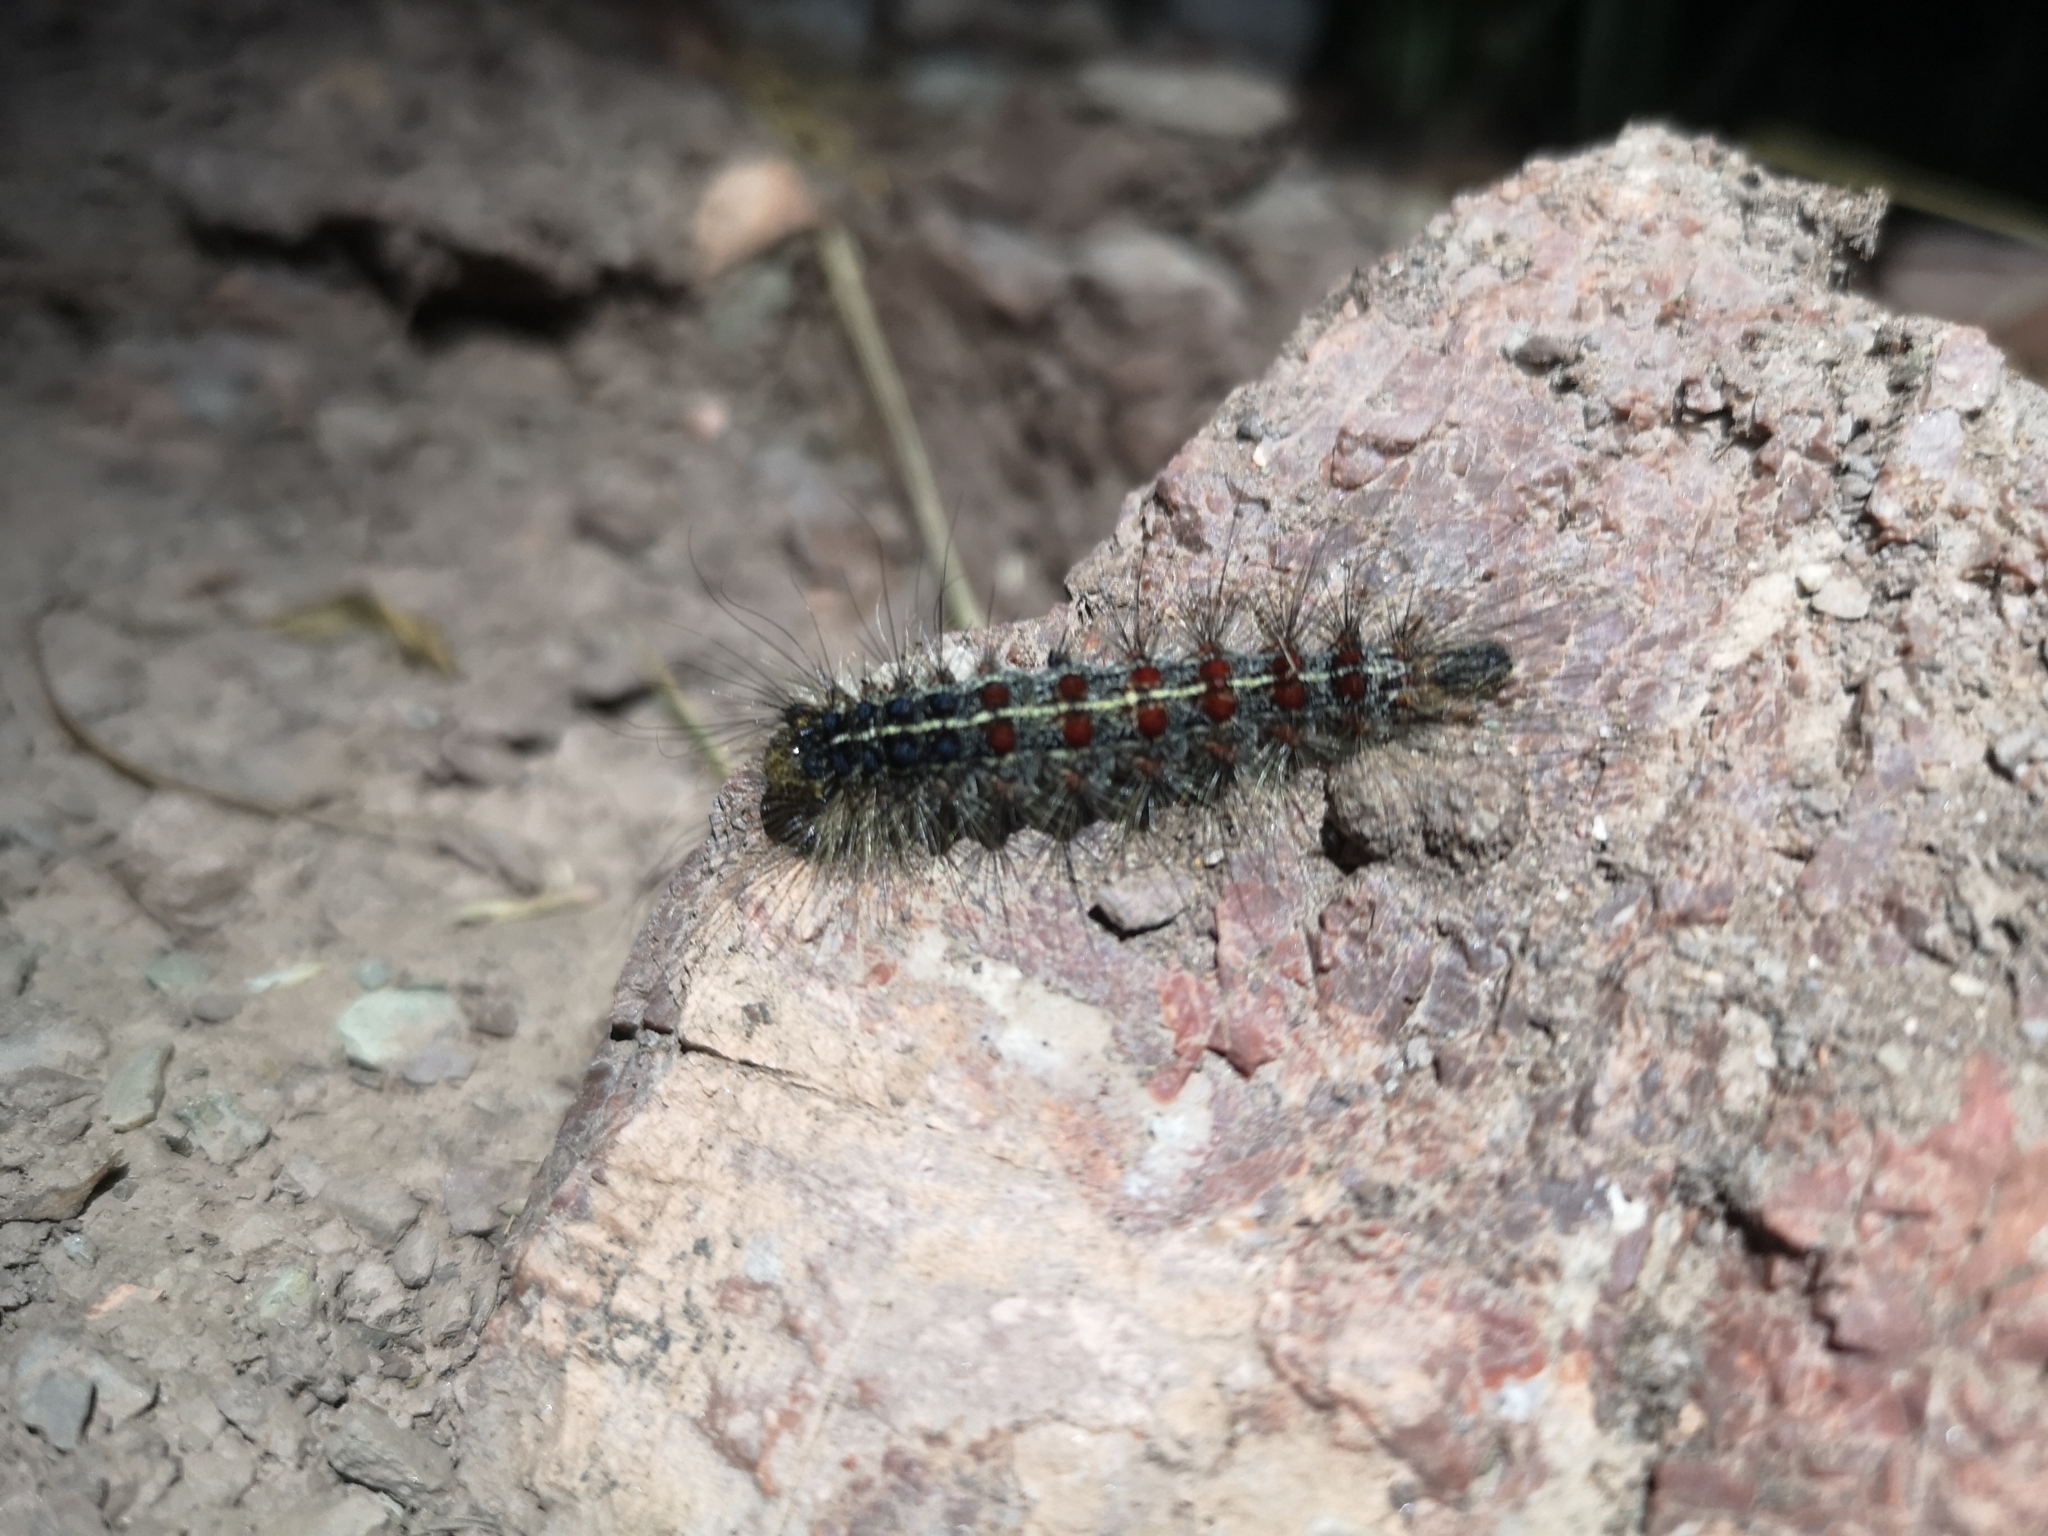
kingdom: Animalia
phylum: Arthropoda
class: Insecta
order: Lepidoptera
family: Erebidae
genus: Lymantria
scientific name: Lymantria dispar
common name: Gypsy moth
